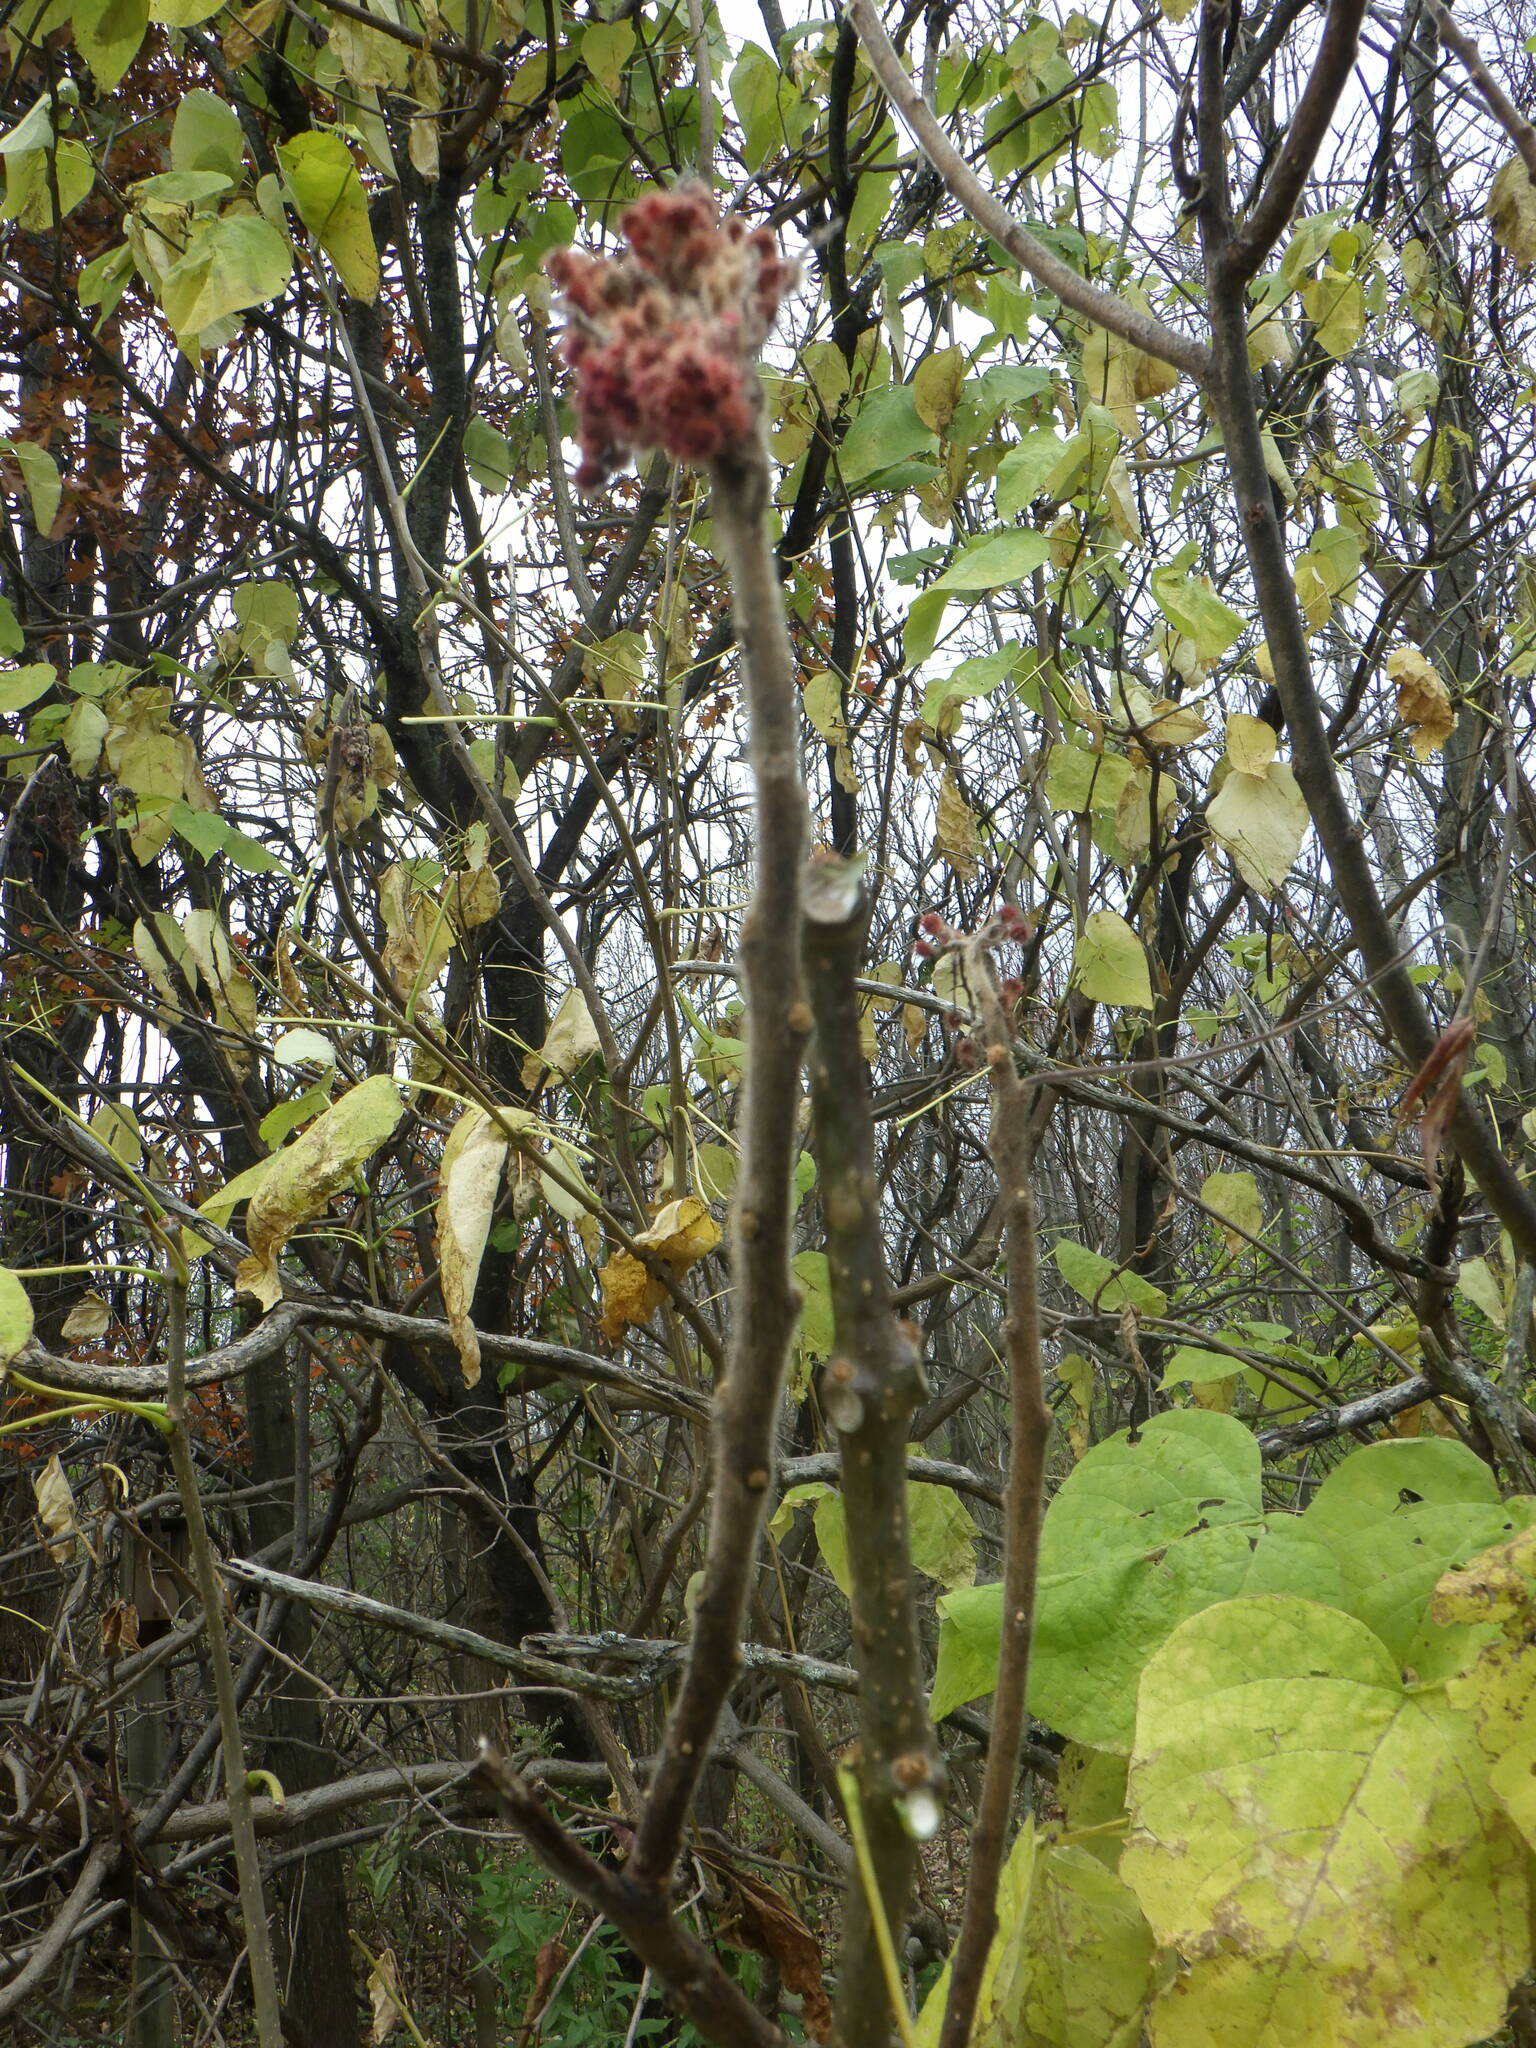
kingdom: Plantae
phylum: Tracheophyta
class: Magnoliopsida
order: Sapindales
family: Anacardiaceae
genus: Rhus
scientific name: Rhus typhina
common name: Staghorn sumac
